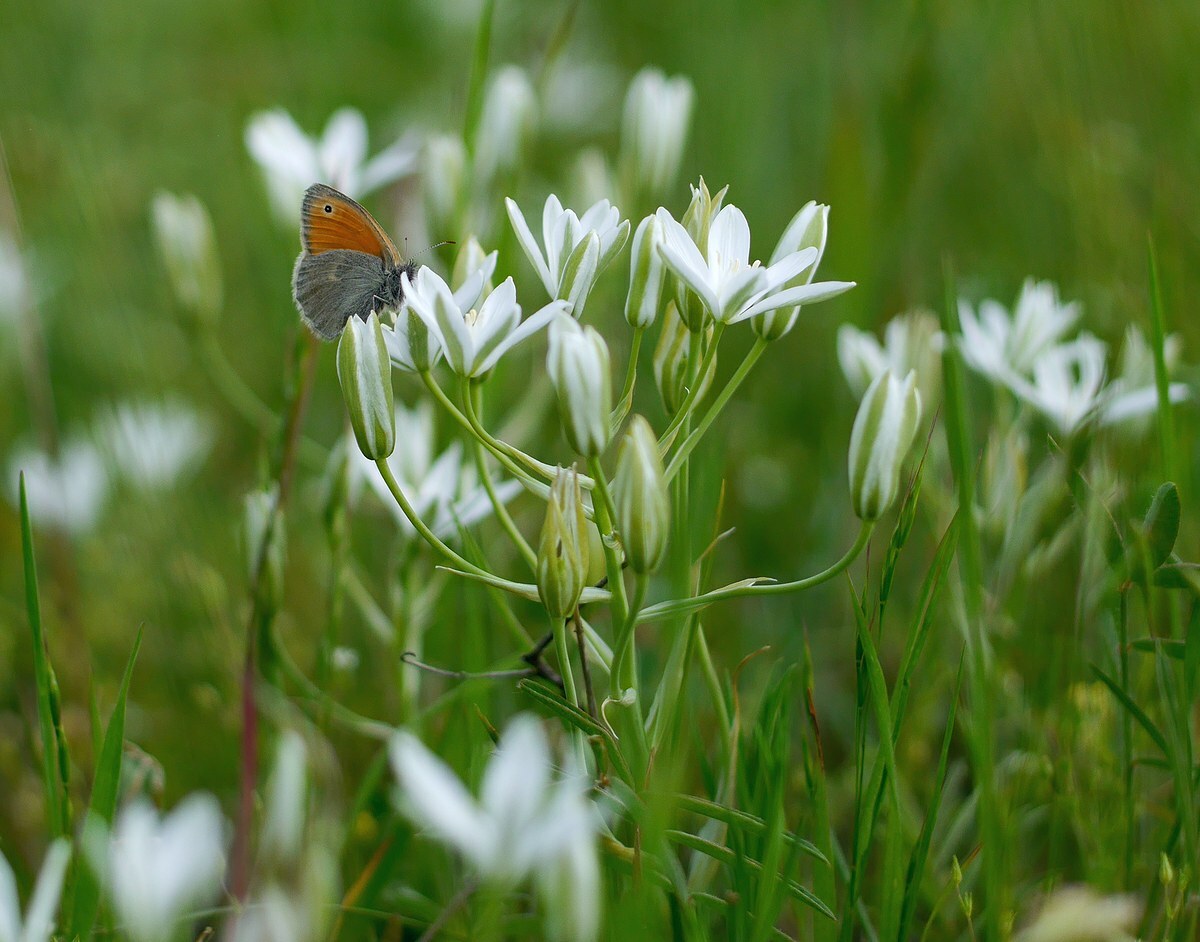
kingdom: Animalia
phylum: Arthropoda
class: Insecta
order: Lepidoptera
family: Nymphalidae
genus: Coenonympha
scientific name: Coenonympha pamphilus
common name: Small heath
